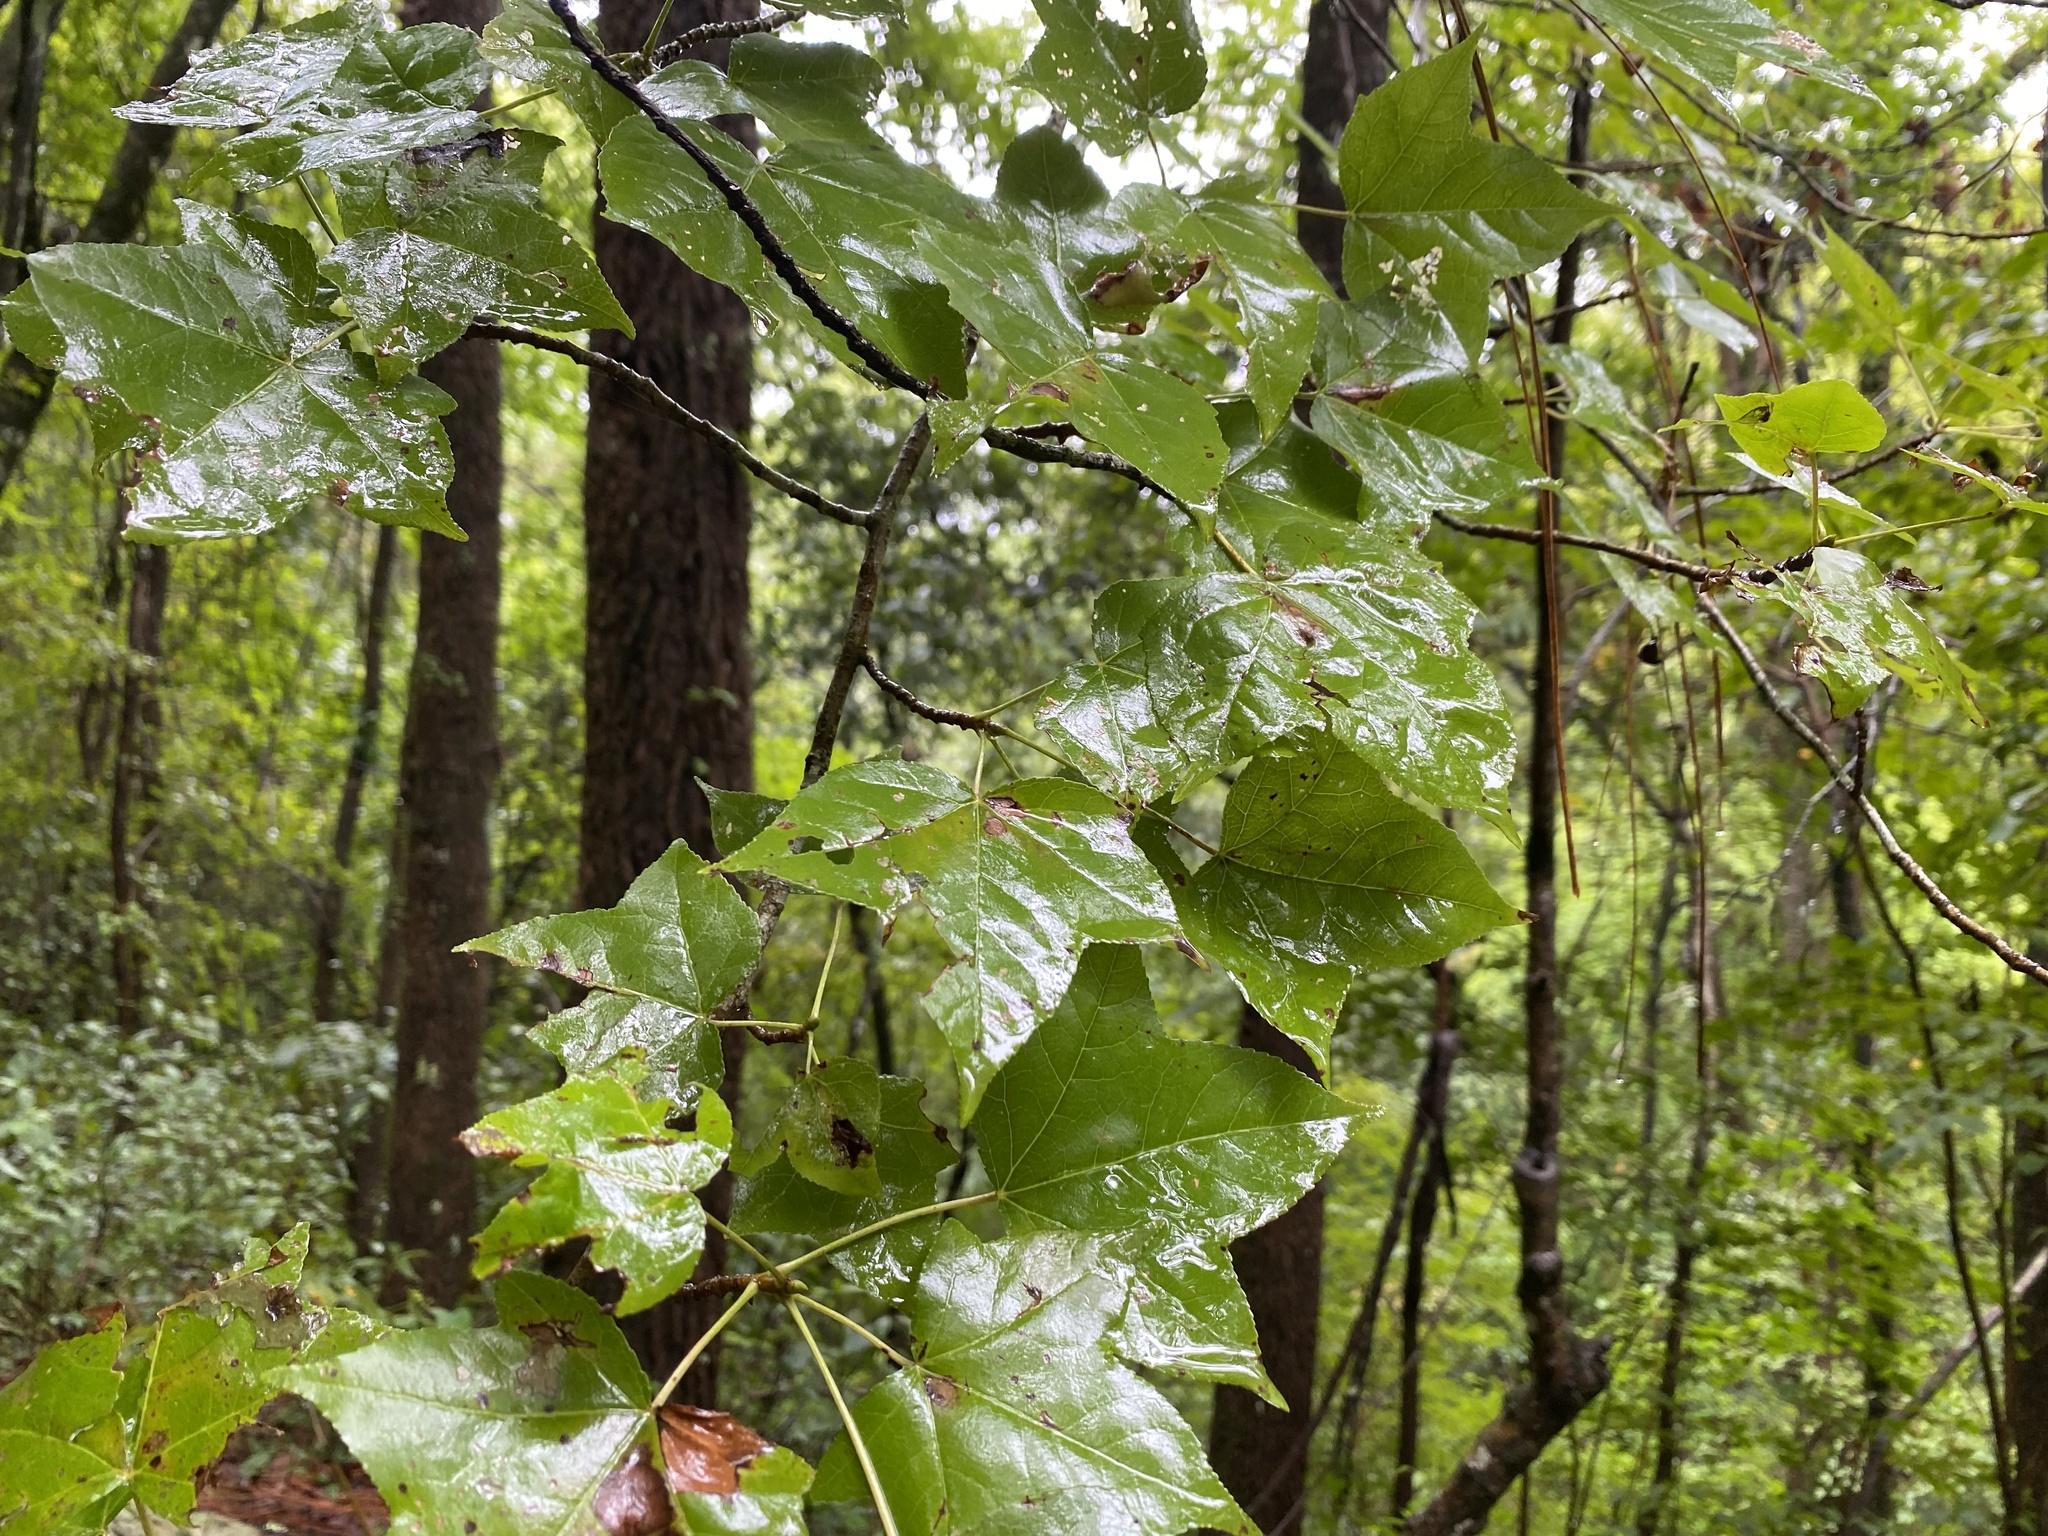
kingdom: Plantae
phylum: Tracheophyta
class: Magnoliopsida
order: Saxifragales
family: Altingiaceae
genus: Liquidambar
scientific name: Liquidambar styraciflua
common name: Sweet gum
